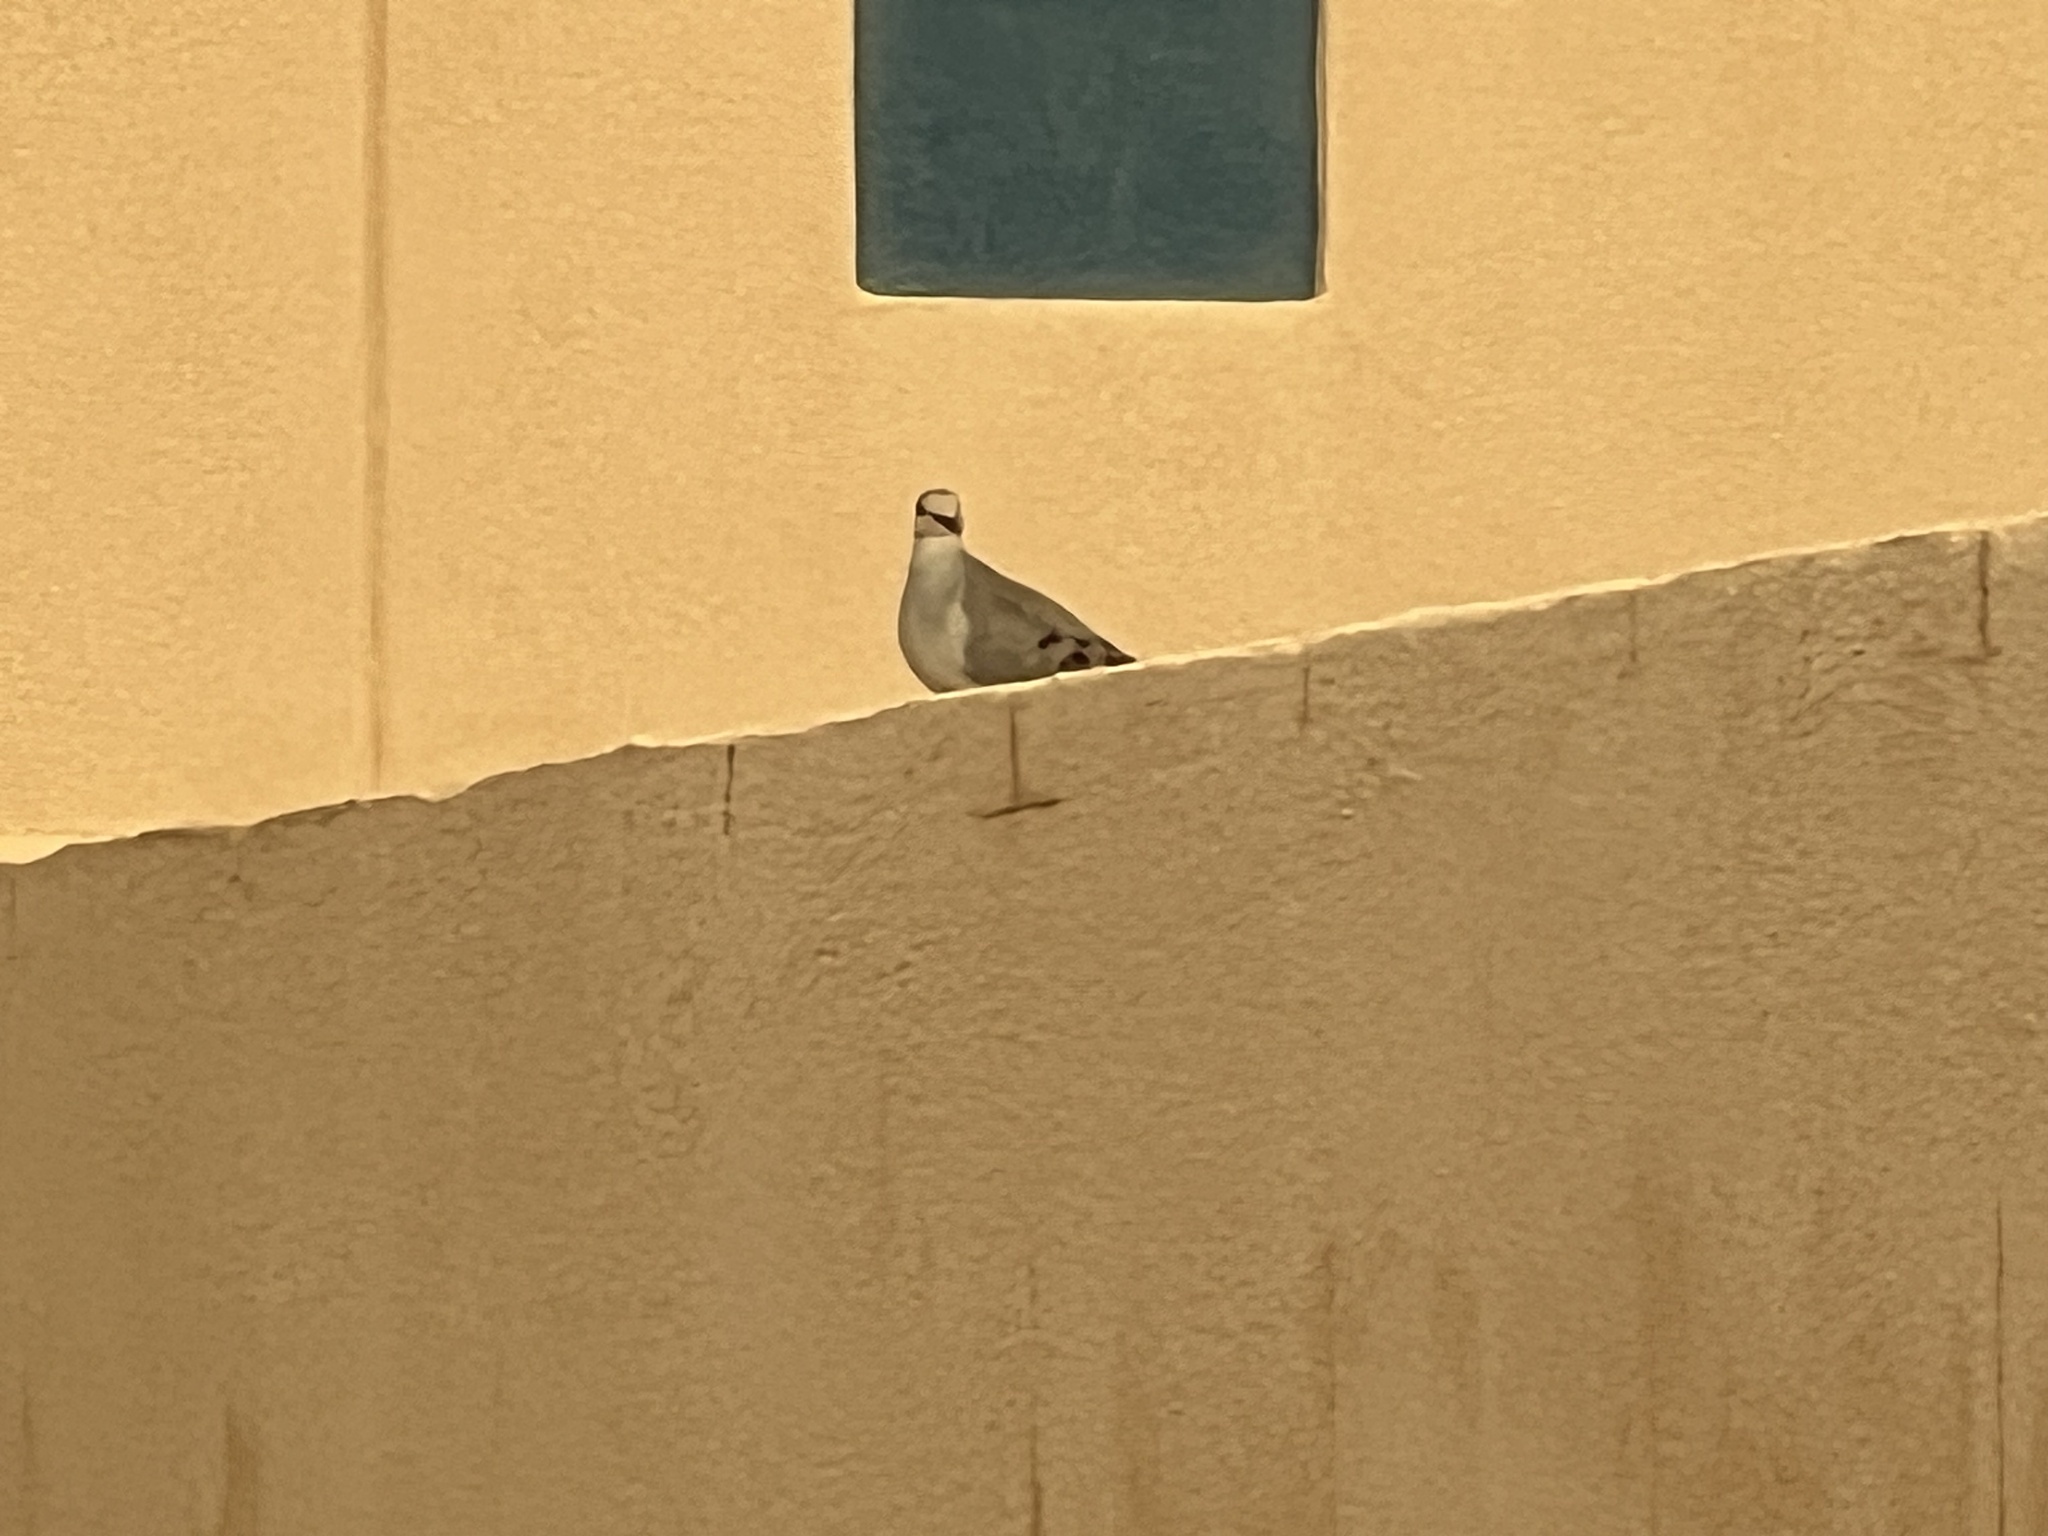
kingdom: Animalia
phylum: Chordata
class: Aves
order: Columbiformes
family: Columbidae
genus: Zenaida
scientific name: Zenaida macroura
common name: Mourning dove
